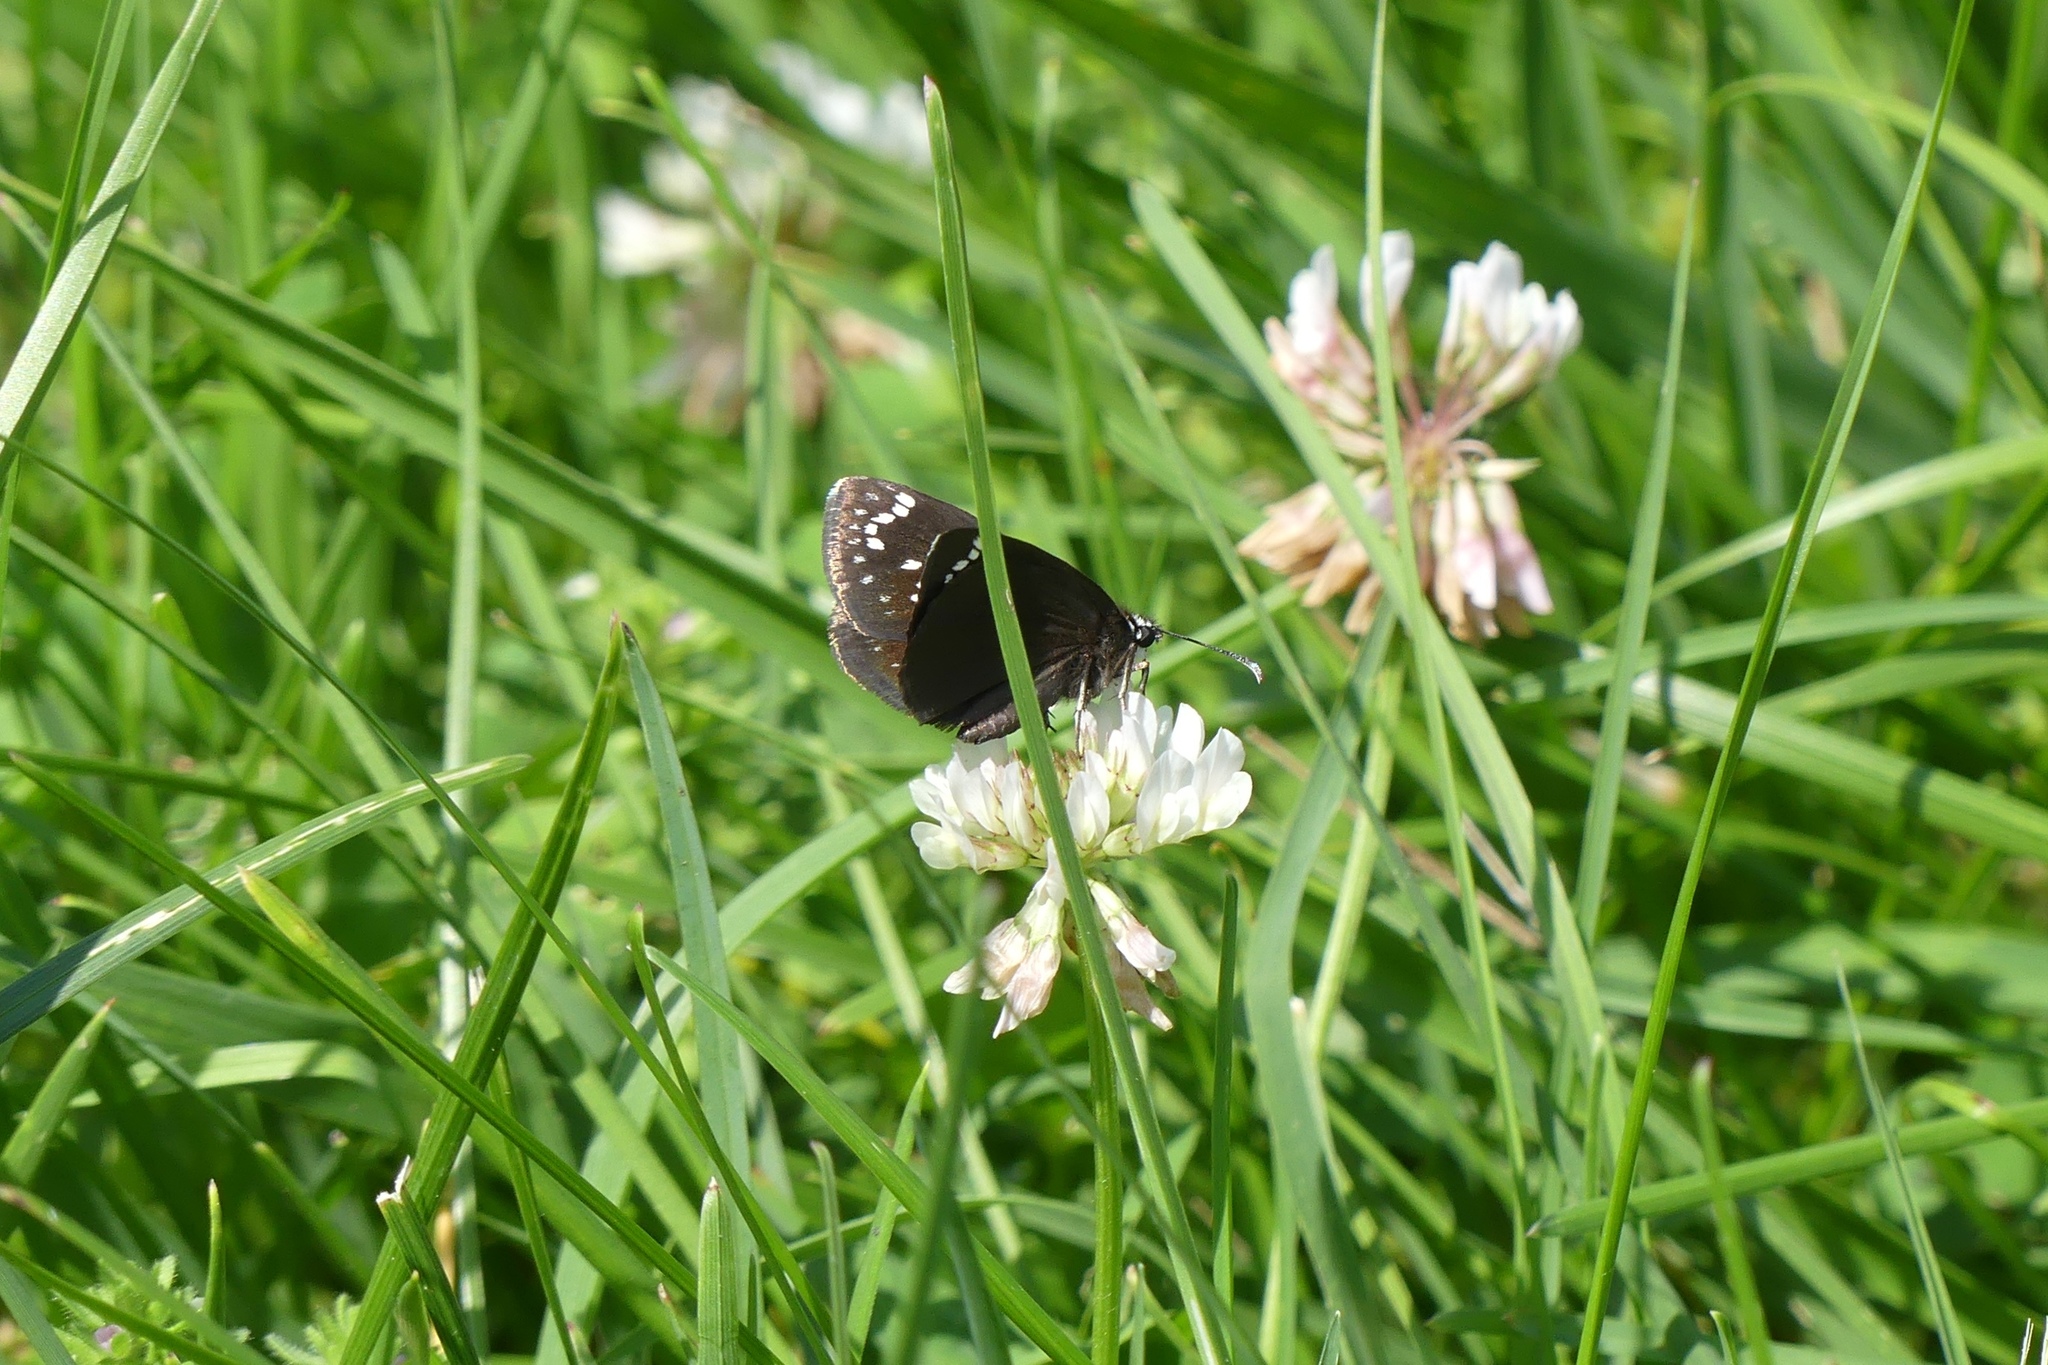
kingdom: Animalia
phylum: Arthropoda
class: Insecta
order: Lepidoptera
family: Hesperiidae
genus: Pholisora
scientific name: Pholisora catullus
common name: Common sootywing
